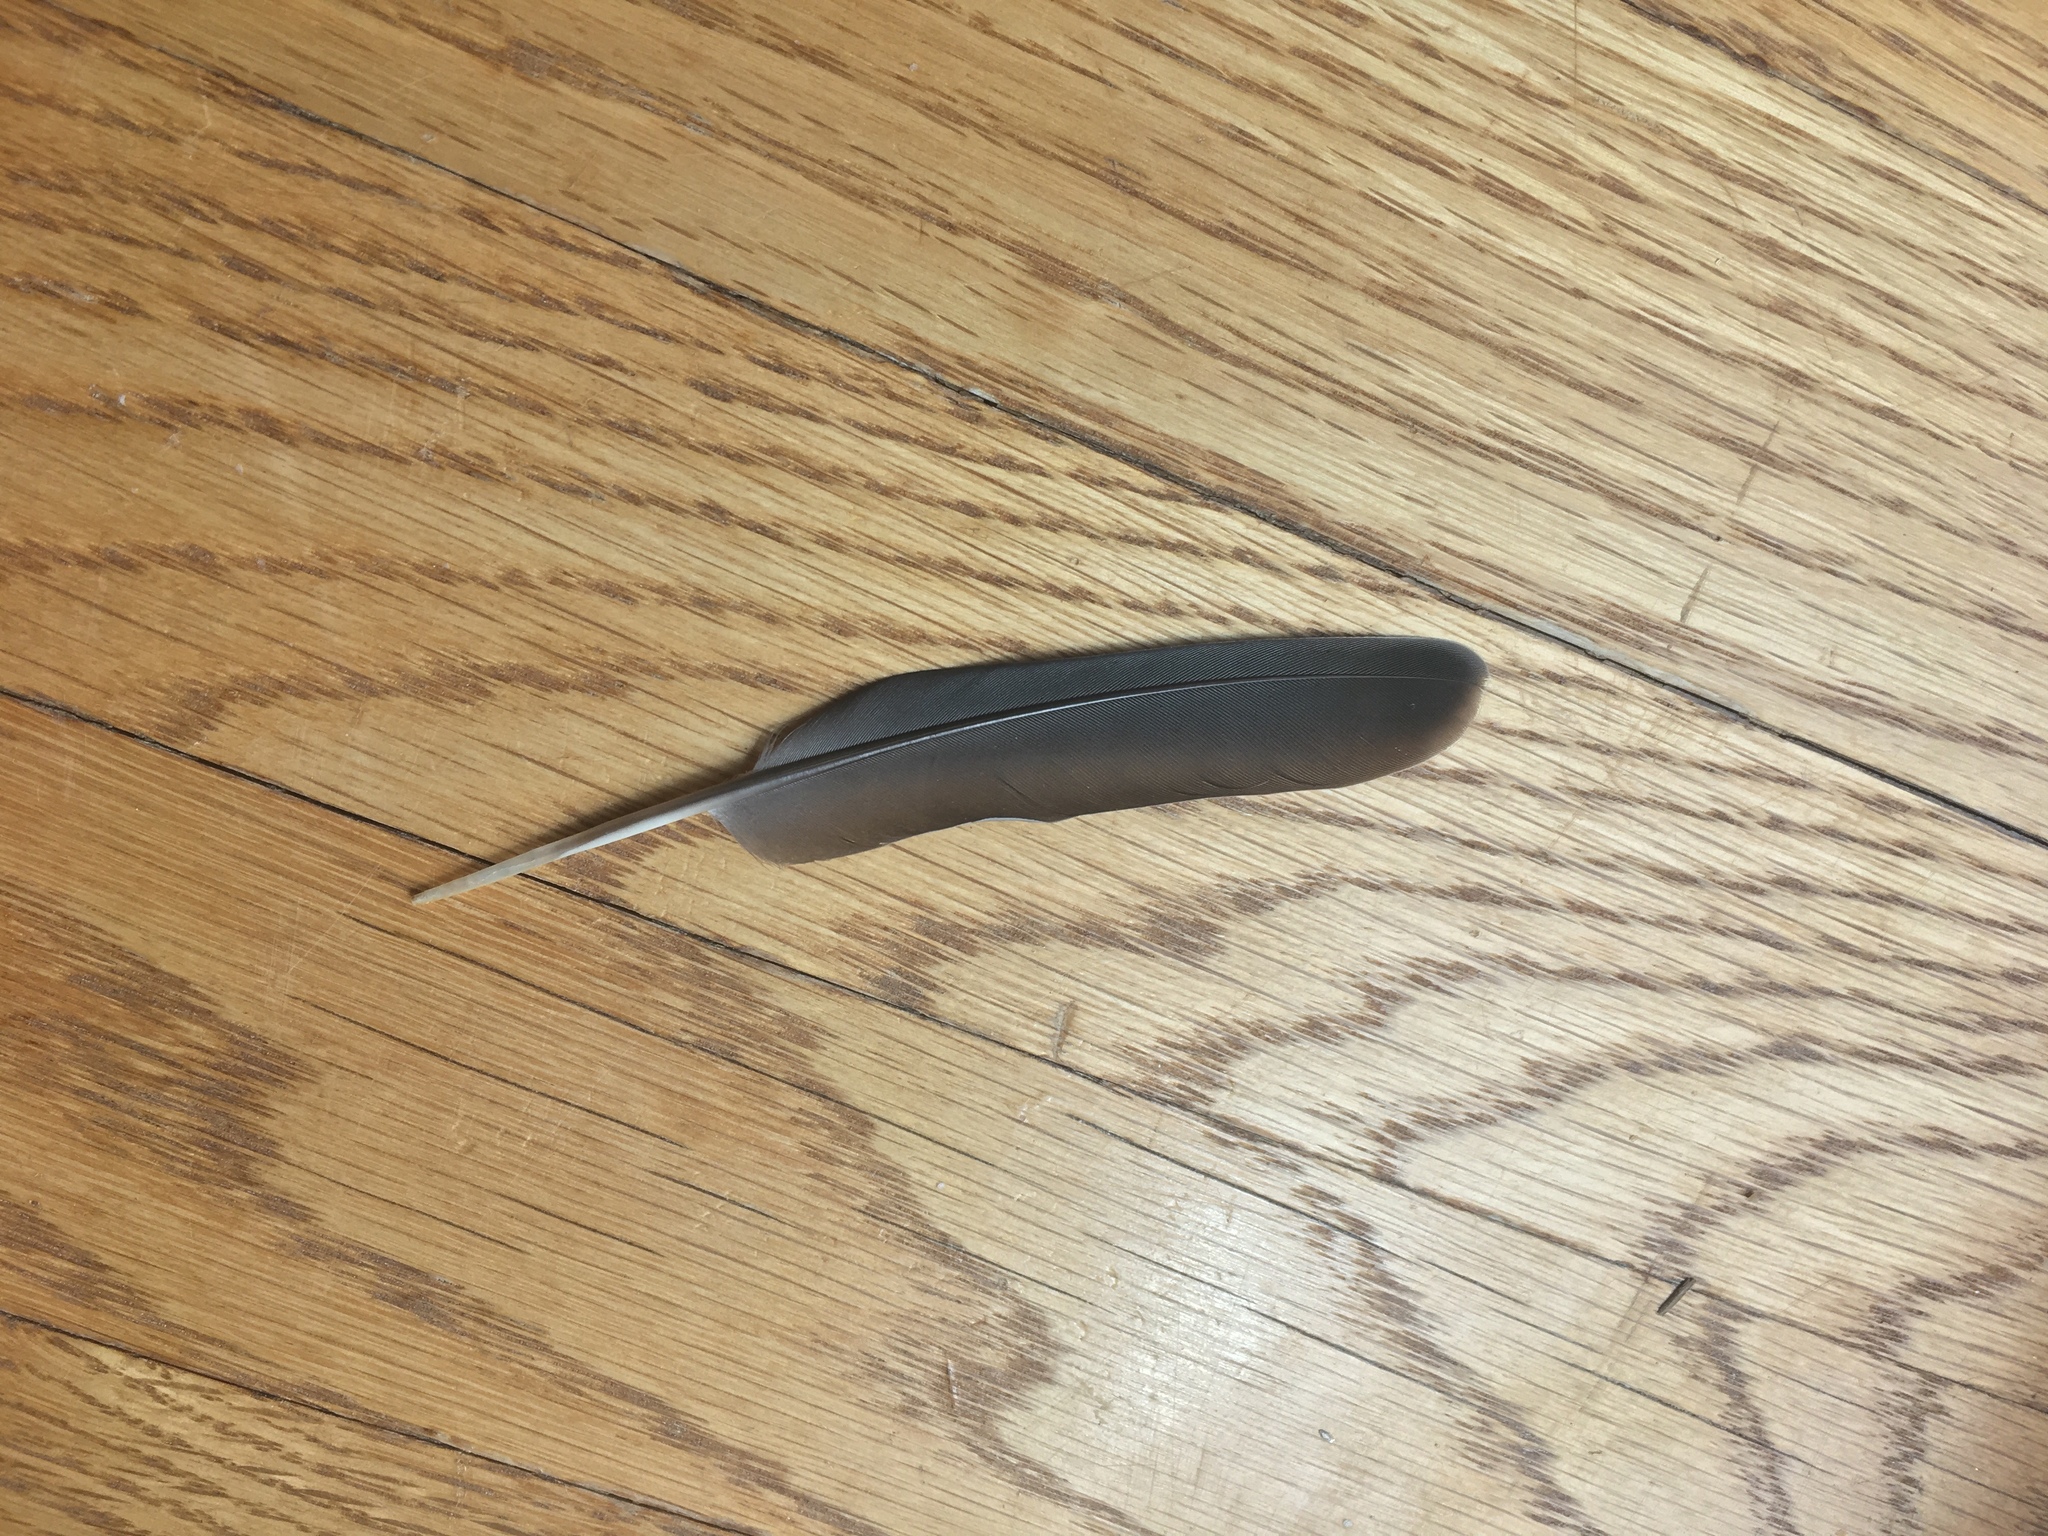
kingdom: Animalia
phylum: Chordata
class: Aves
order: Columbiformes
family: Columbidae
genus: Zenaida
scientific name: Zenaida macroura
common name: Mourning dove
